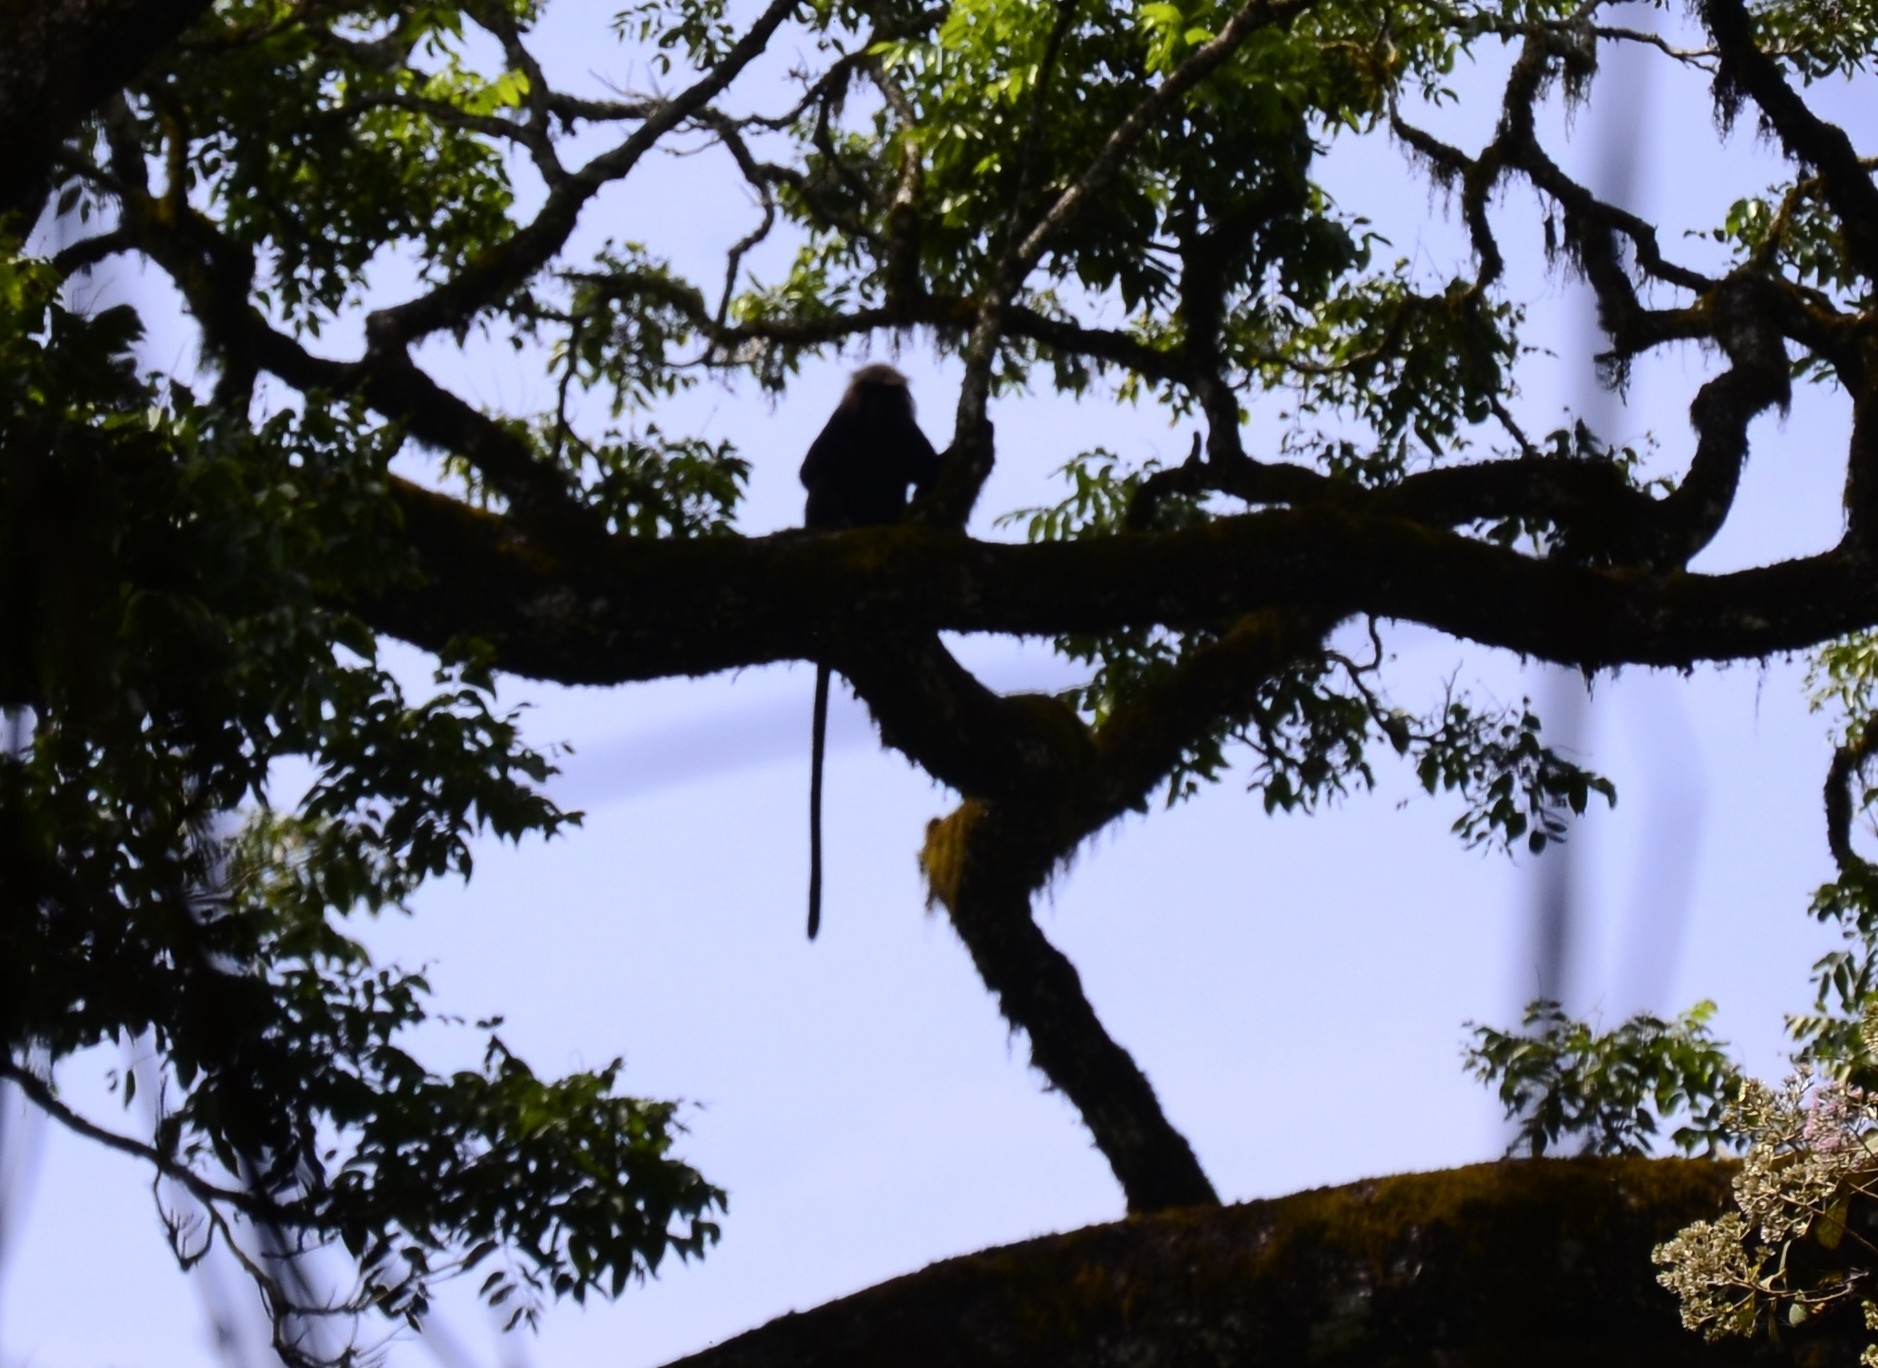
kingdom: Animalia
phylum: Chordata
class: Mammalia
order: Primates
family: Cercopithecidae
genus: Semnopithecus
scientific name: Semnopithecus johnii
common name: Nilgiri langur
